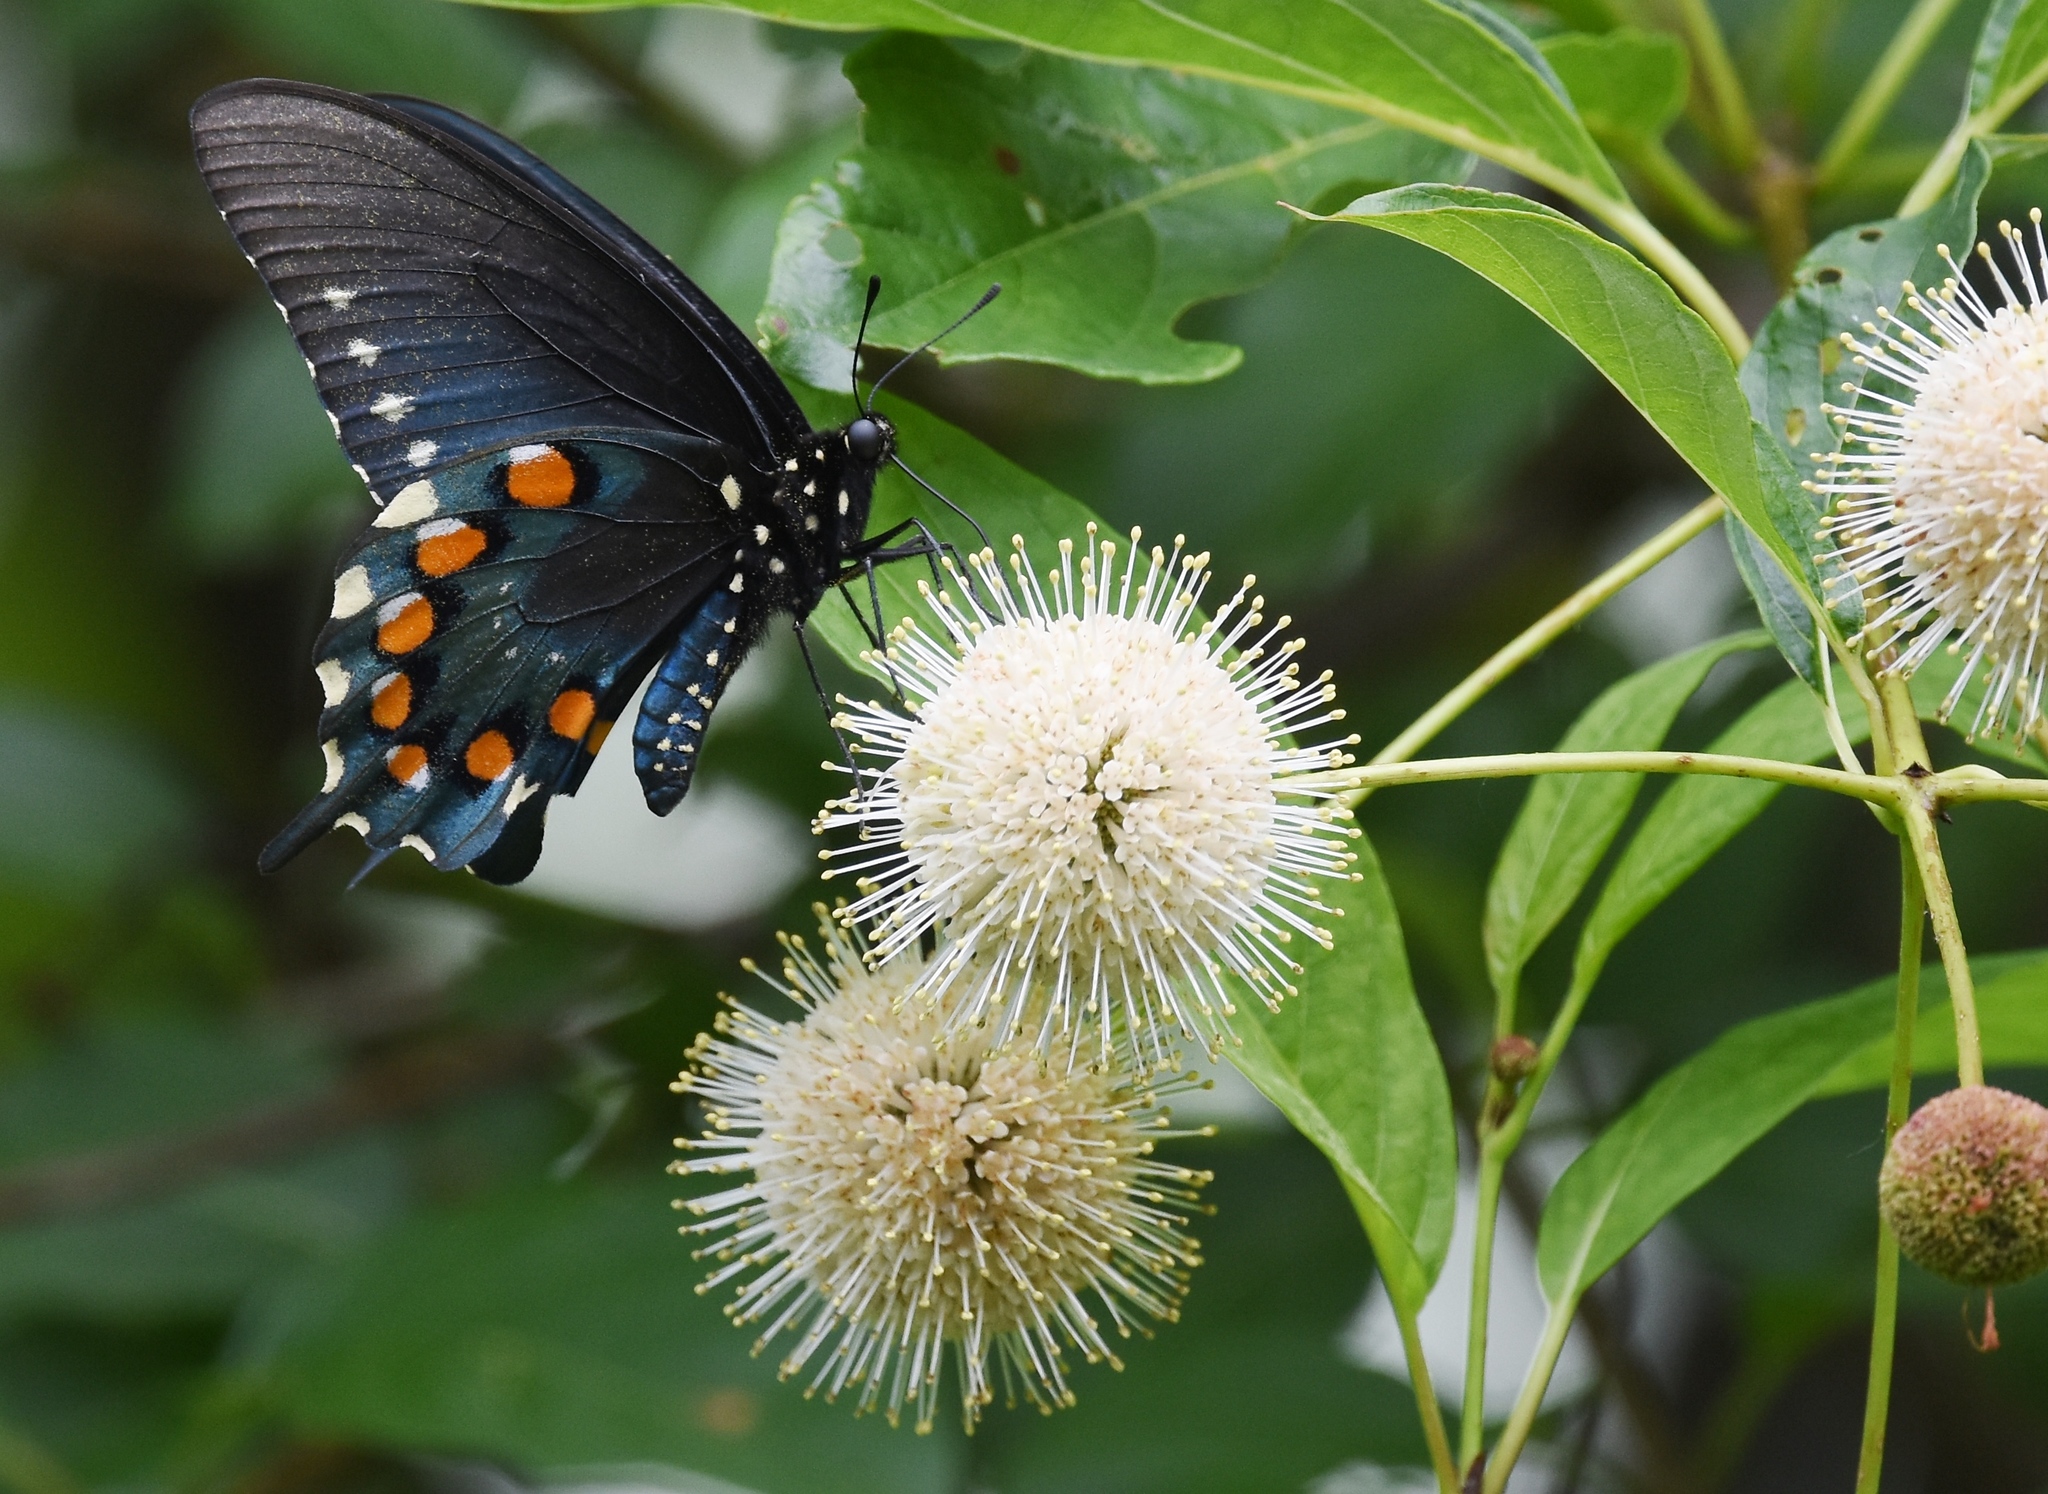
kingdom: Animalia
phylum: Arthropoda
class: Insecta
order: Lepidoptera
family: Papilionidae
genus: Battus
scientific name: Battus philenor
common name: Pipevine swallowtail
